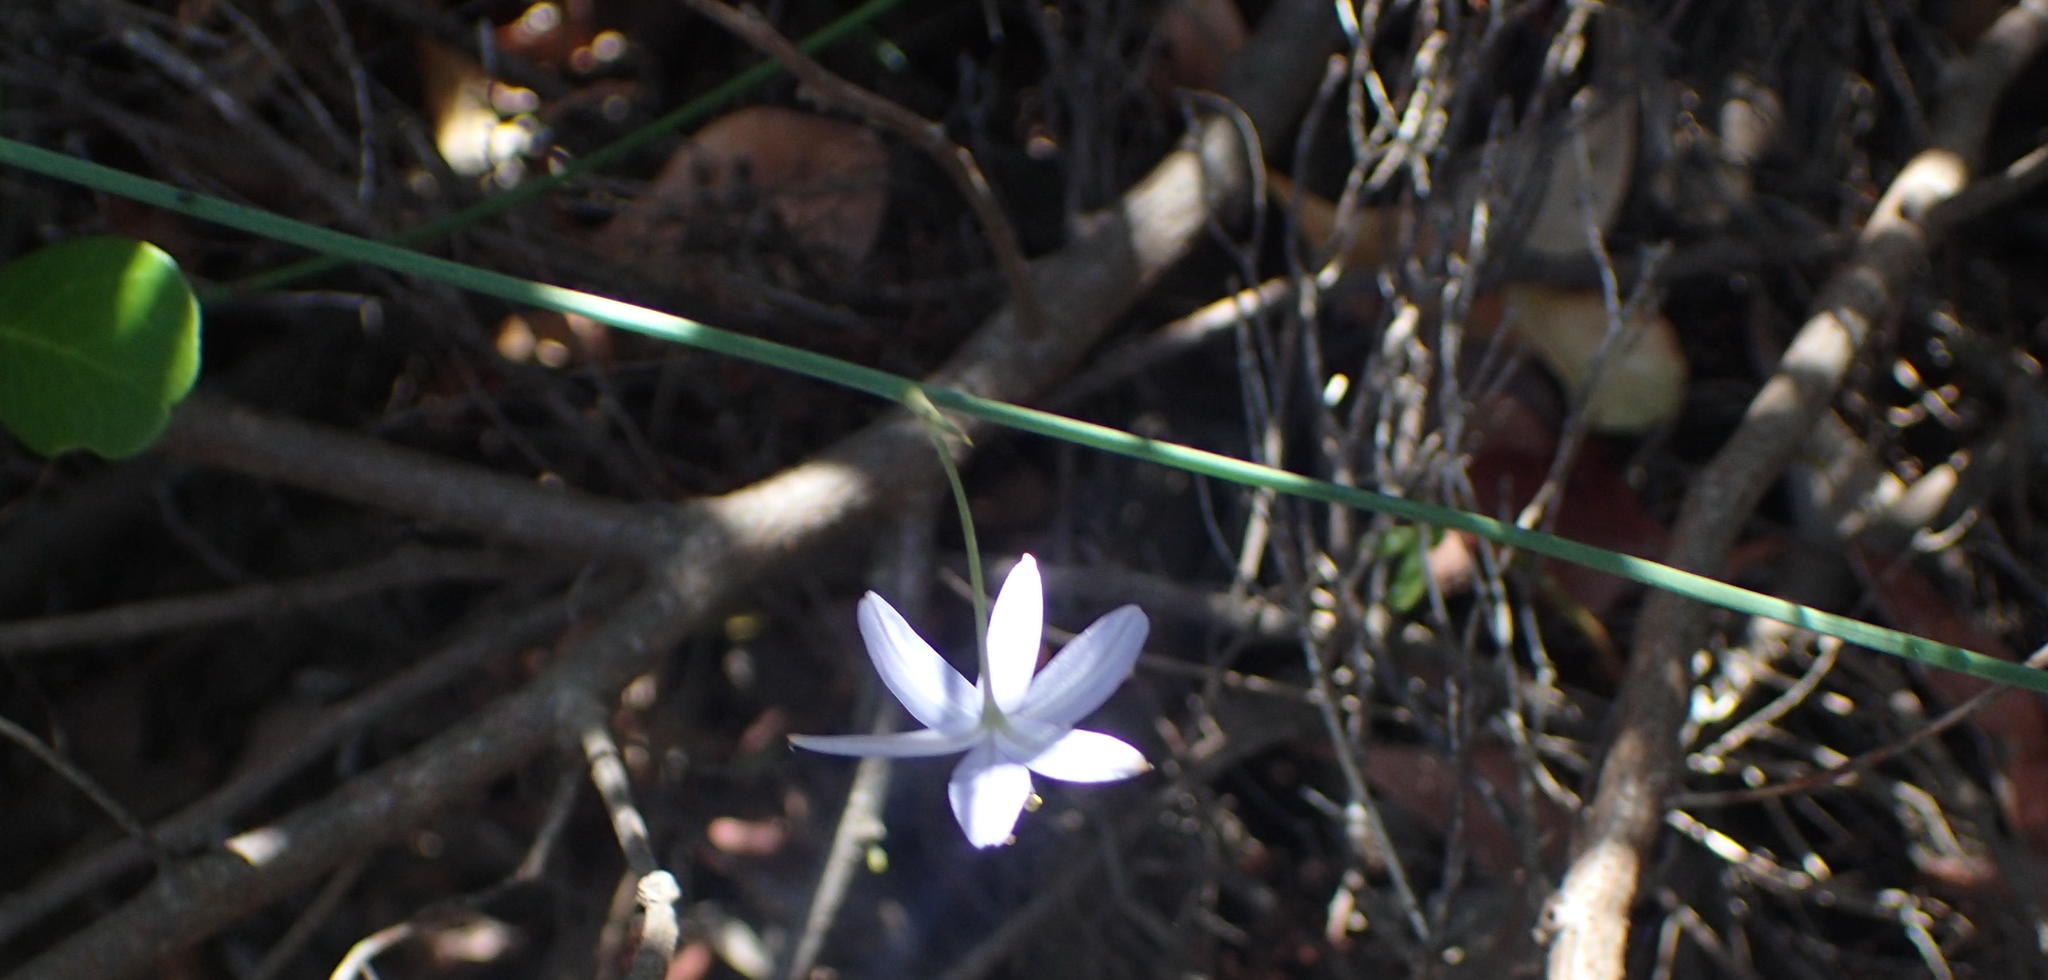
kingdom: Plantae
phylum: Tracheophyta
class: Liliopsida
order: Asparagales
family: Asphodelaceae
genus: Caesia
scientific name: Caesia contorta
